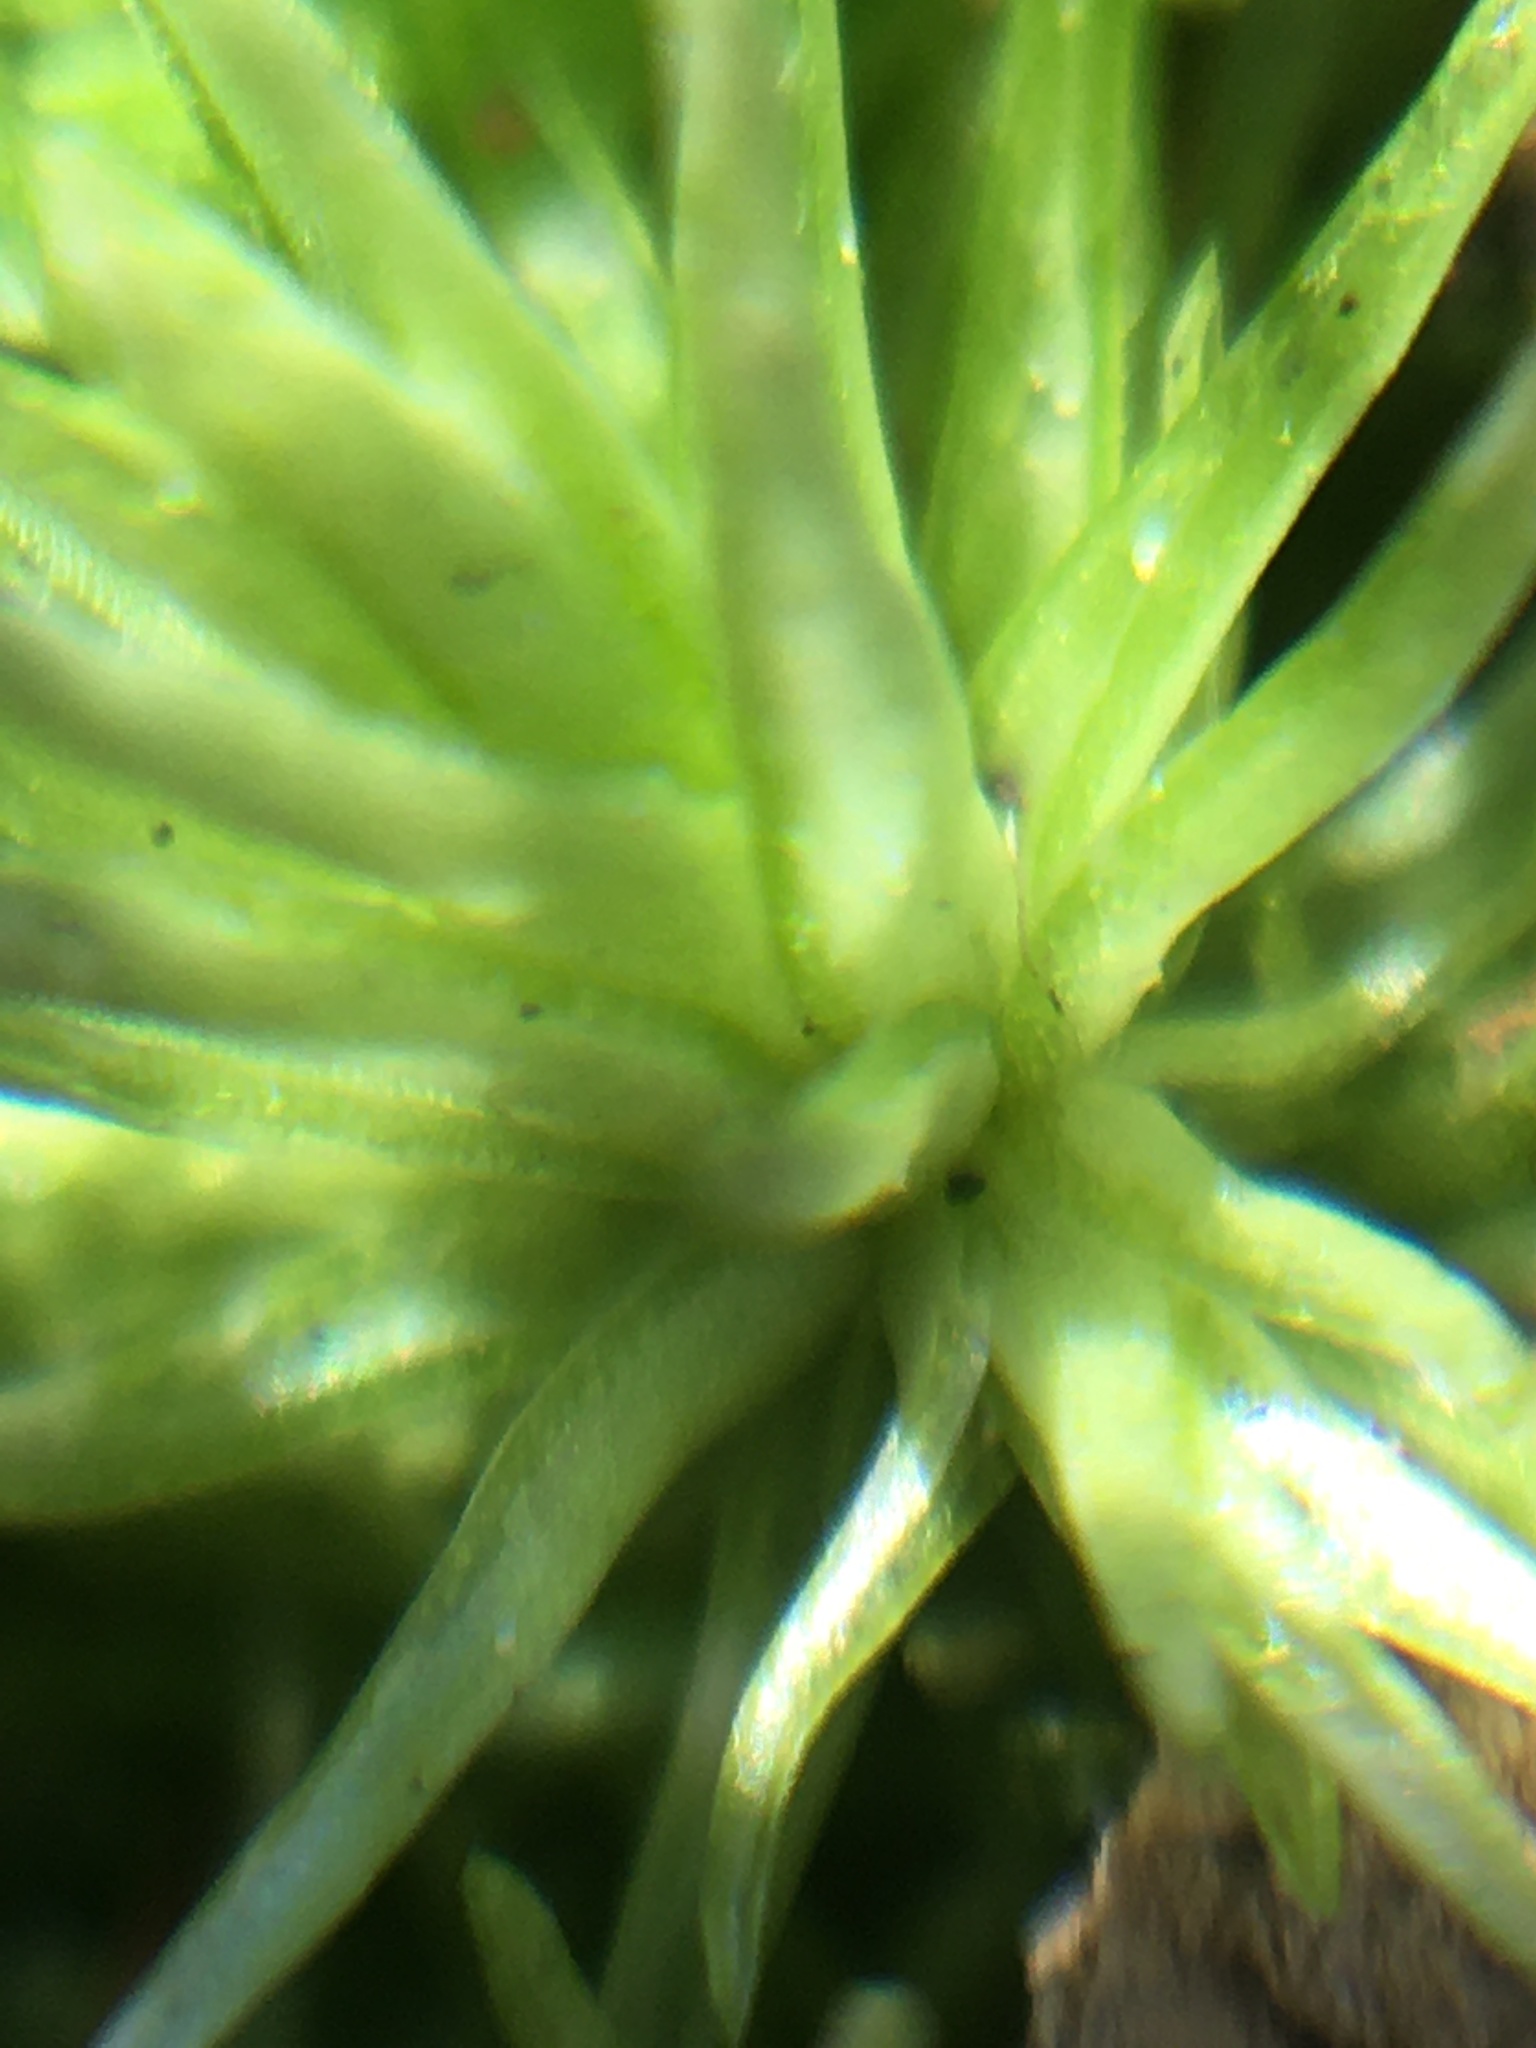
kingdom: Plantae
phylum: Bryophyta
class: Bryopsida
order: Dicranales
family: Leucobryaceae
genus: Leucobryum
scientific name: Leucobryum glaucum
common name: Large white-moss
